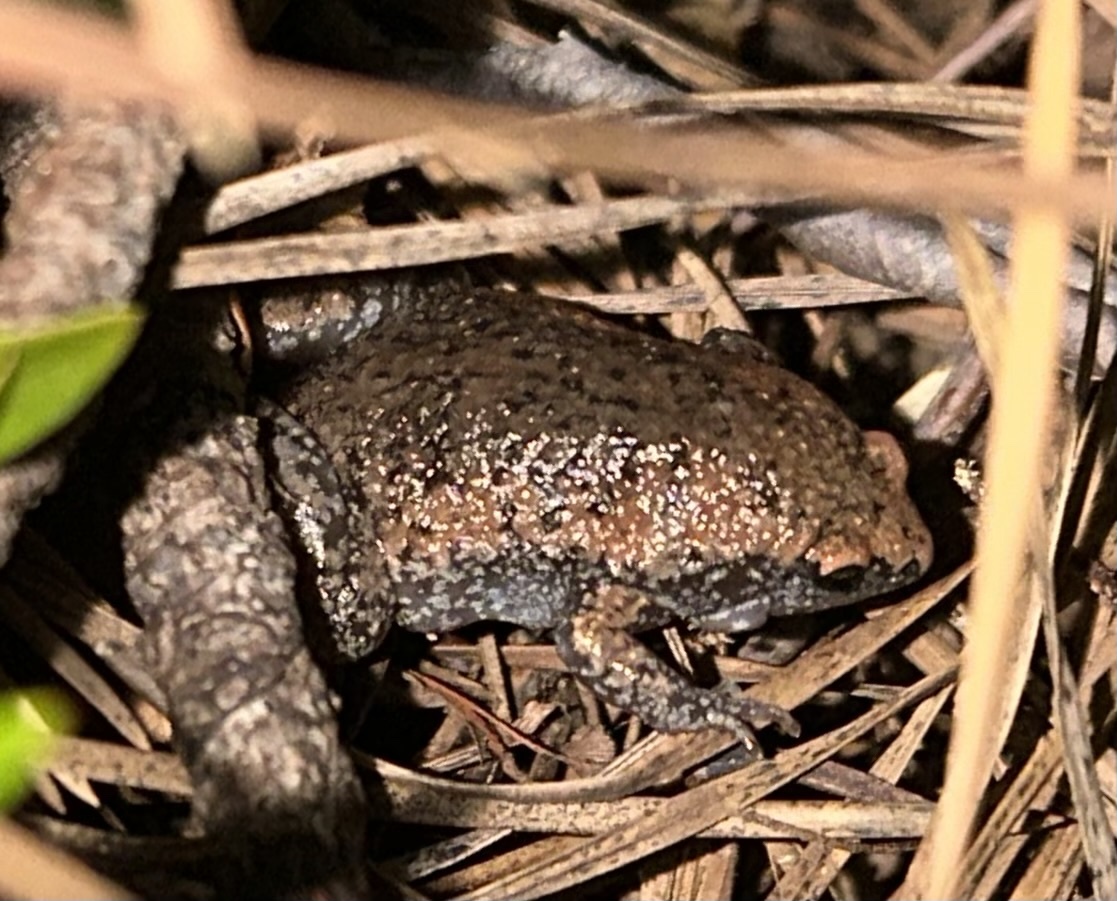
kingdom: Animalia
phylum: Chordata
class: Amphibia
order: Anura
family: Microhylidae
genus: Gastrophryne
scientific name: Gastrophryne carolinensis
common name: Eastern narrowmouth toad
